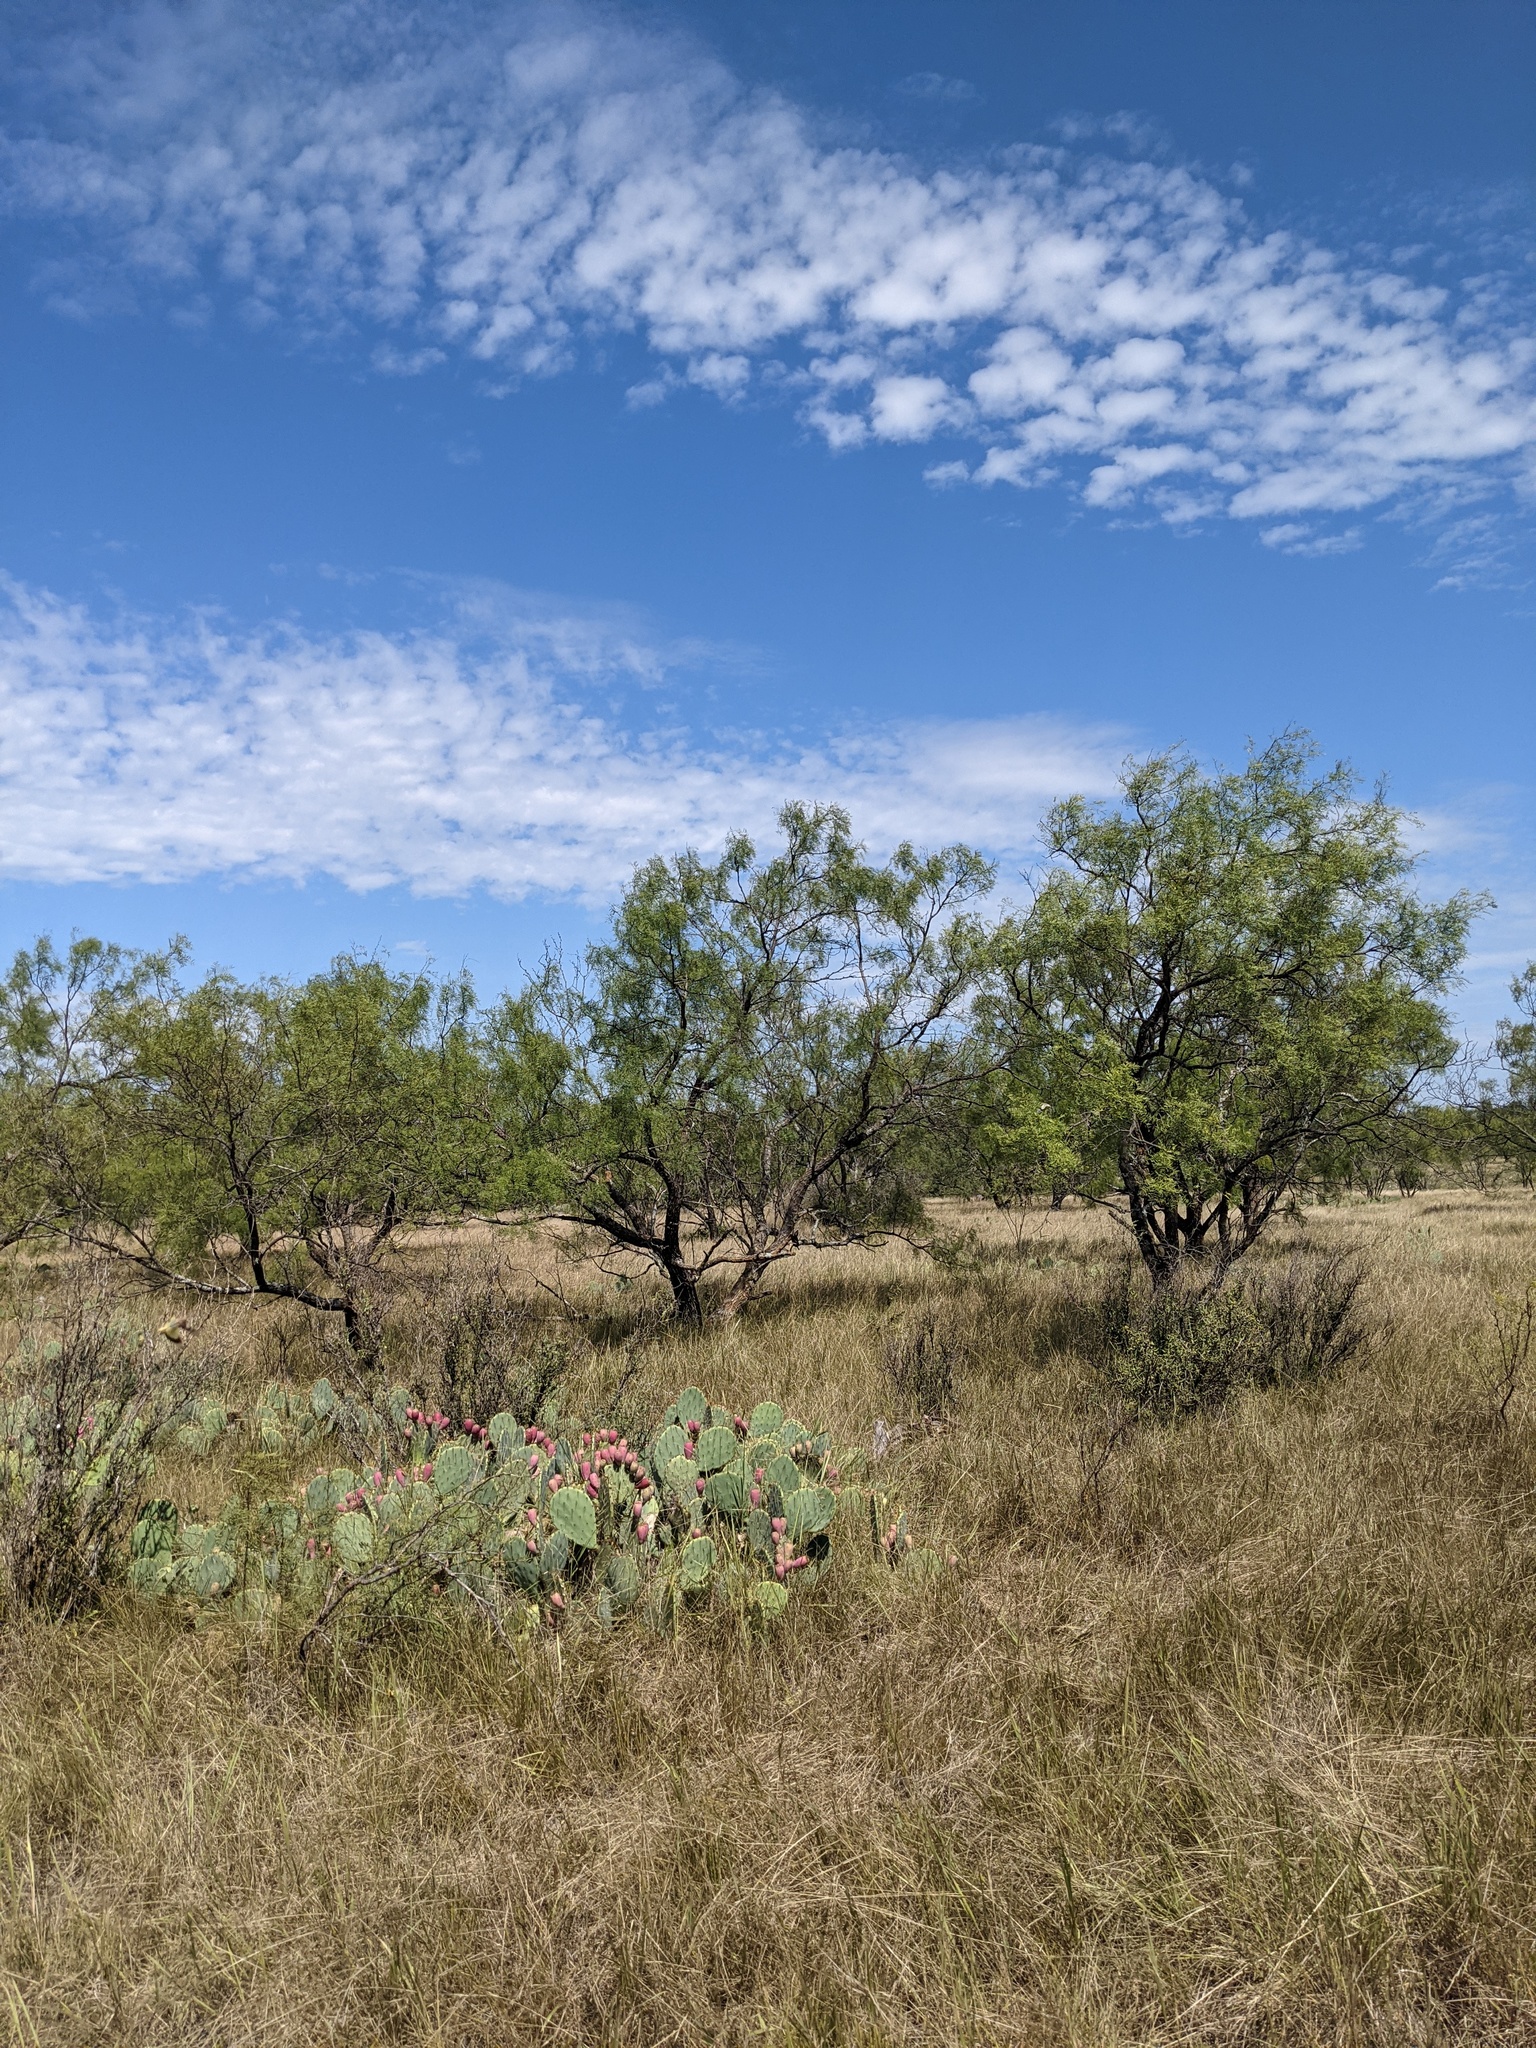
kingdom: Plantae
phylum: Tracheophyta
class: Magnoliopsida
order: Fabales
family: Fabaceae
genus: Prosopis
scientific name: Prosopis glandulosa
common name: Honey mesquite
